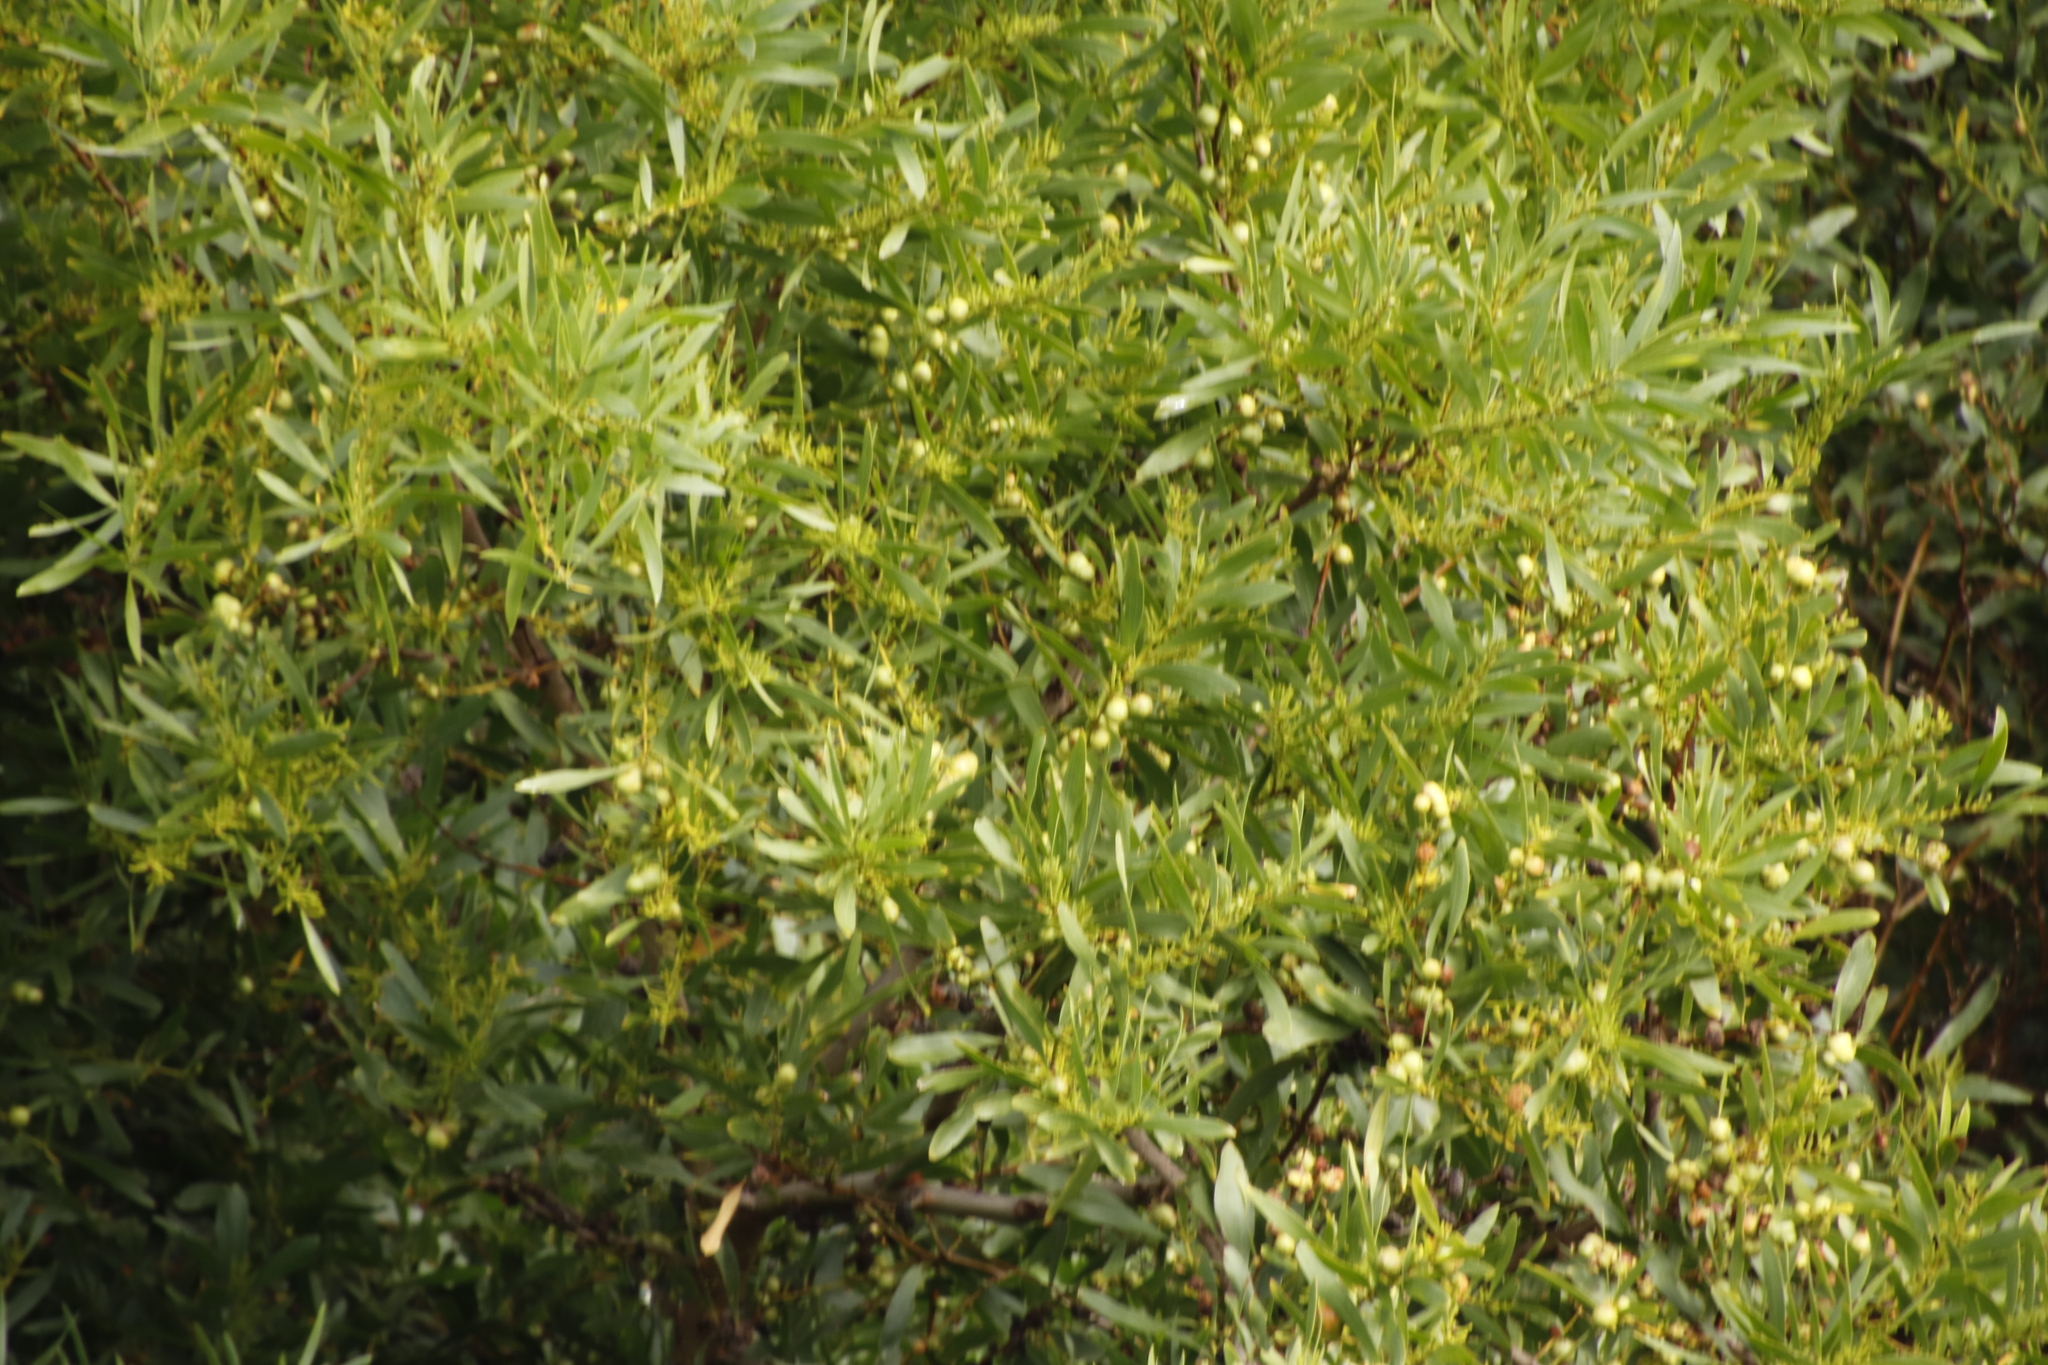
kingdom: Plantae
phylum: Tracheophyta
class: Magnoliopsida
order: Fabales
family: Fabaceae
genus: Acacia
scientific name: Acacia longifolia
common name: Sydney golden wattle
